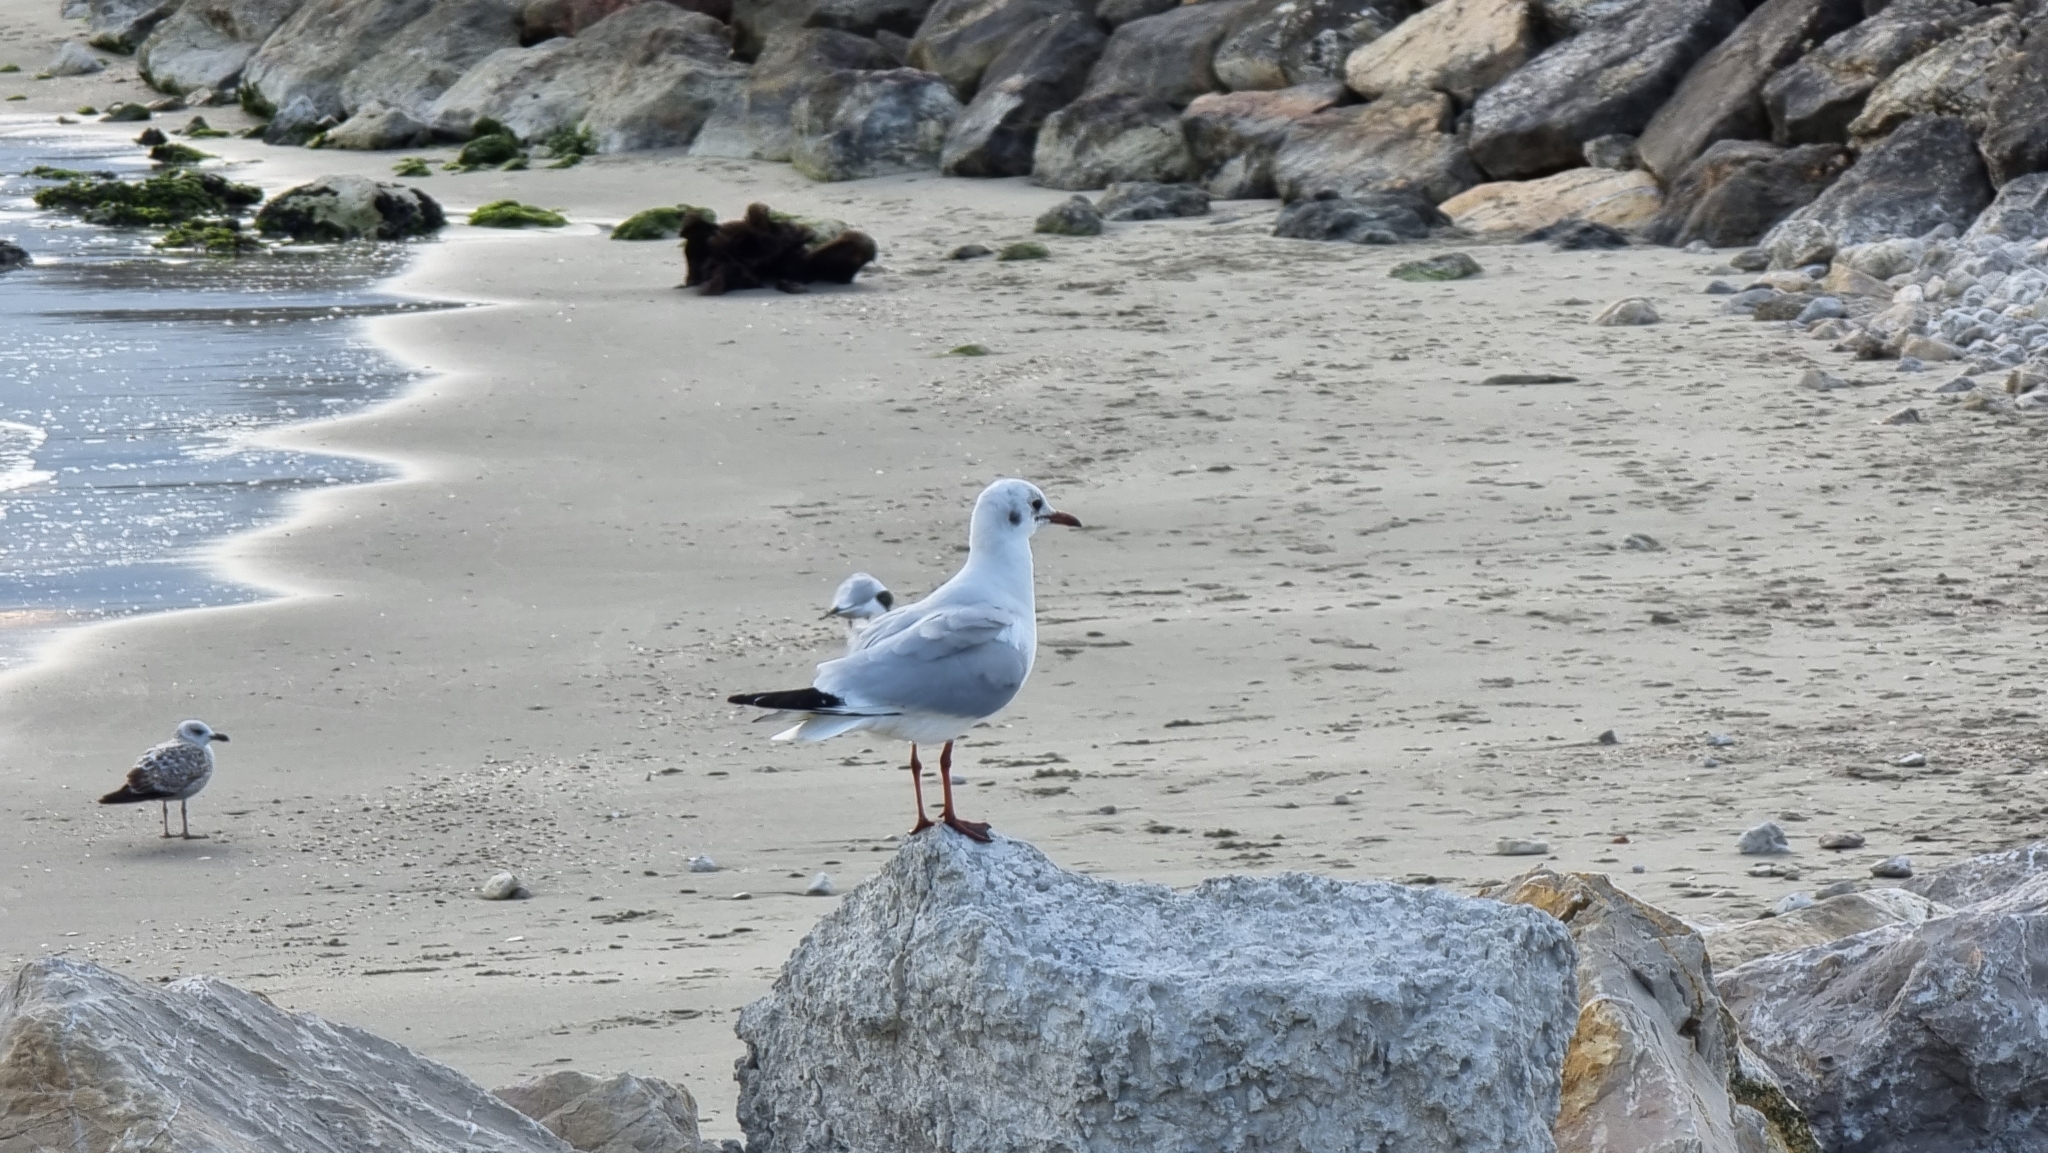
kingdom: Animalia
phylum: Chordata
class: Aves
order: Charadriiformes
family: Laridae
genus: Chroicocephalus
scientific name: Chroicocephalus ridibundus
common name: Black-headed gull
